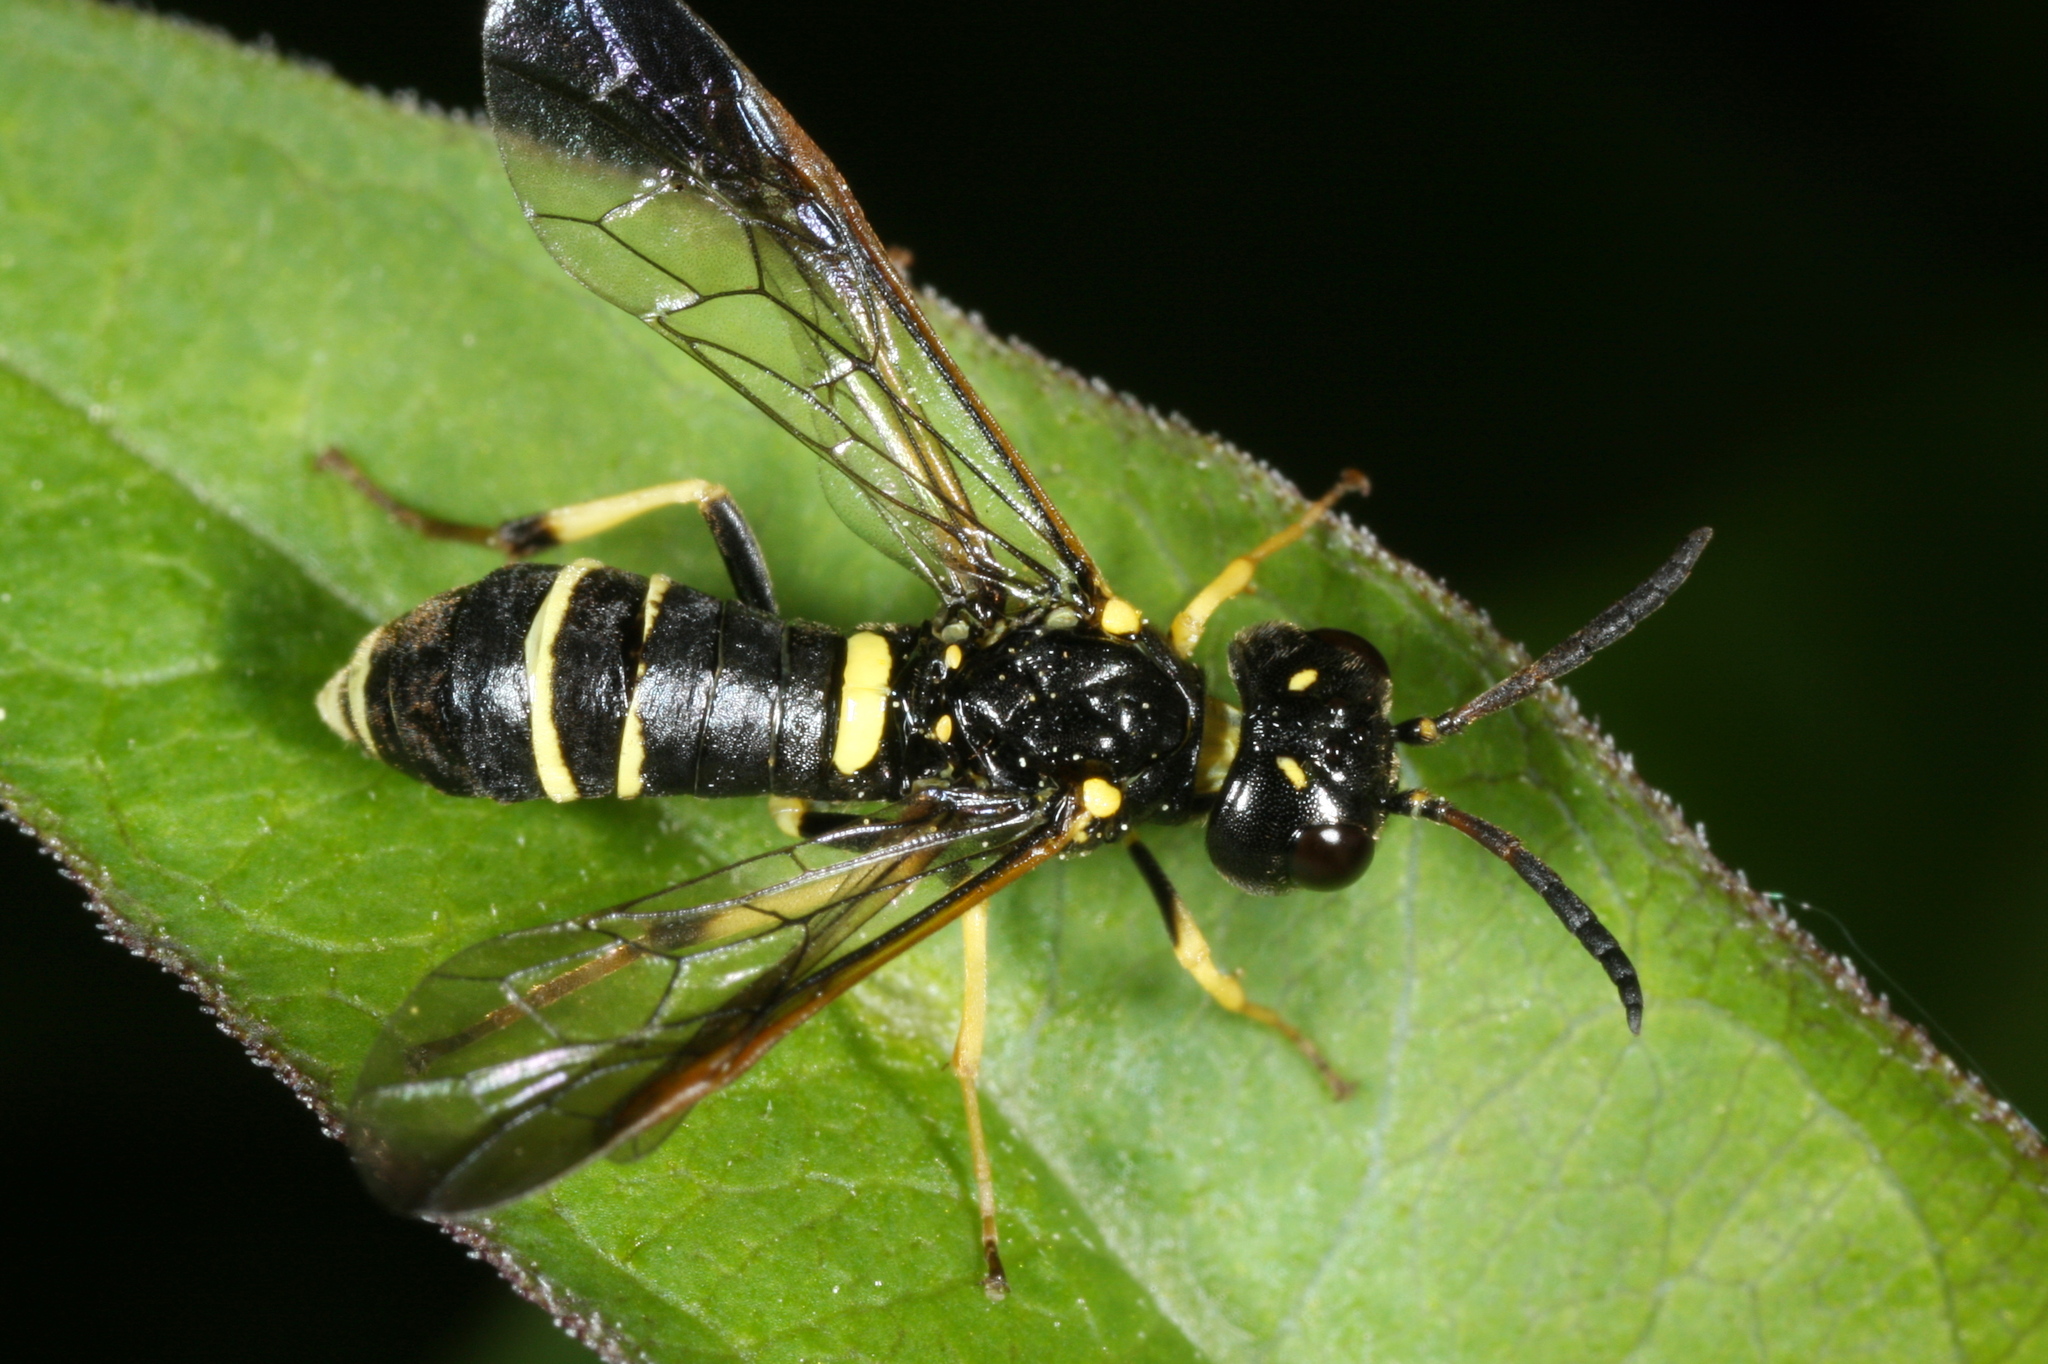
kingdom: Animalia
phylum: Arthropoda
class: Insecta
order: Hymenoptera
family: Tenthredinidae
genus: Allantus
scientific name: Allantus viennensis
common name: Sawfly
